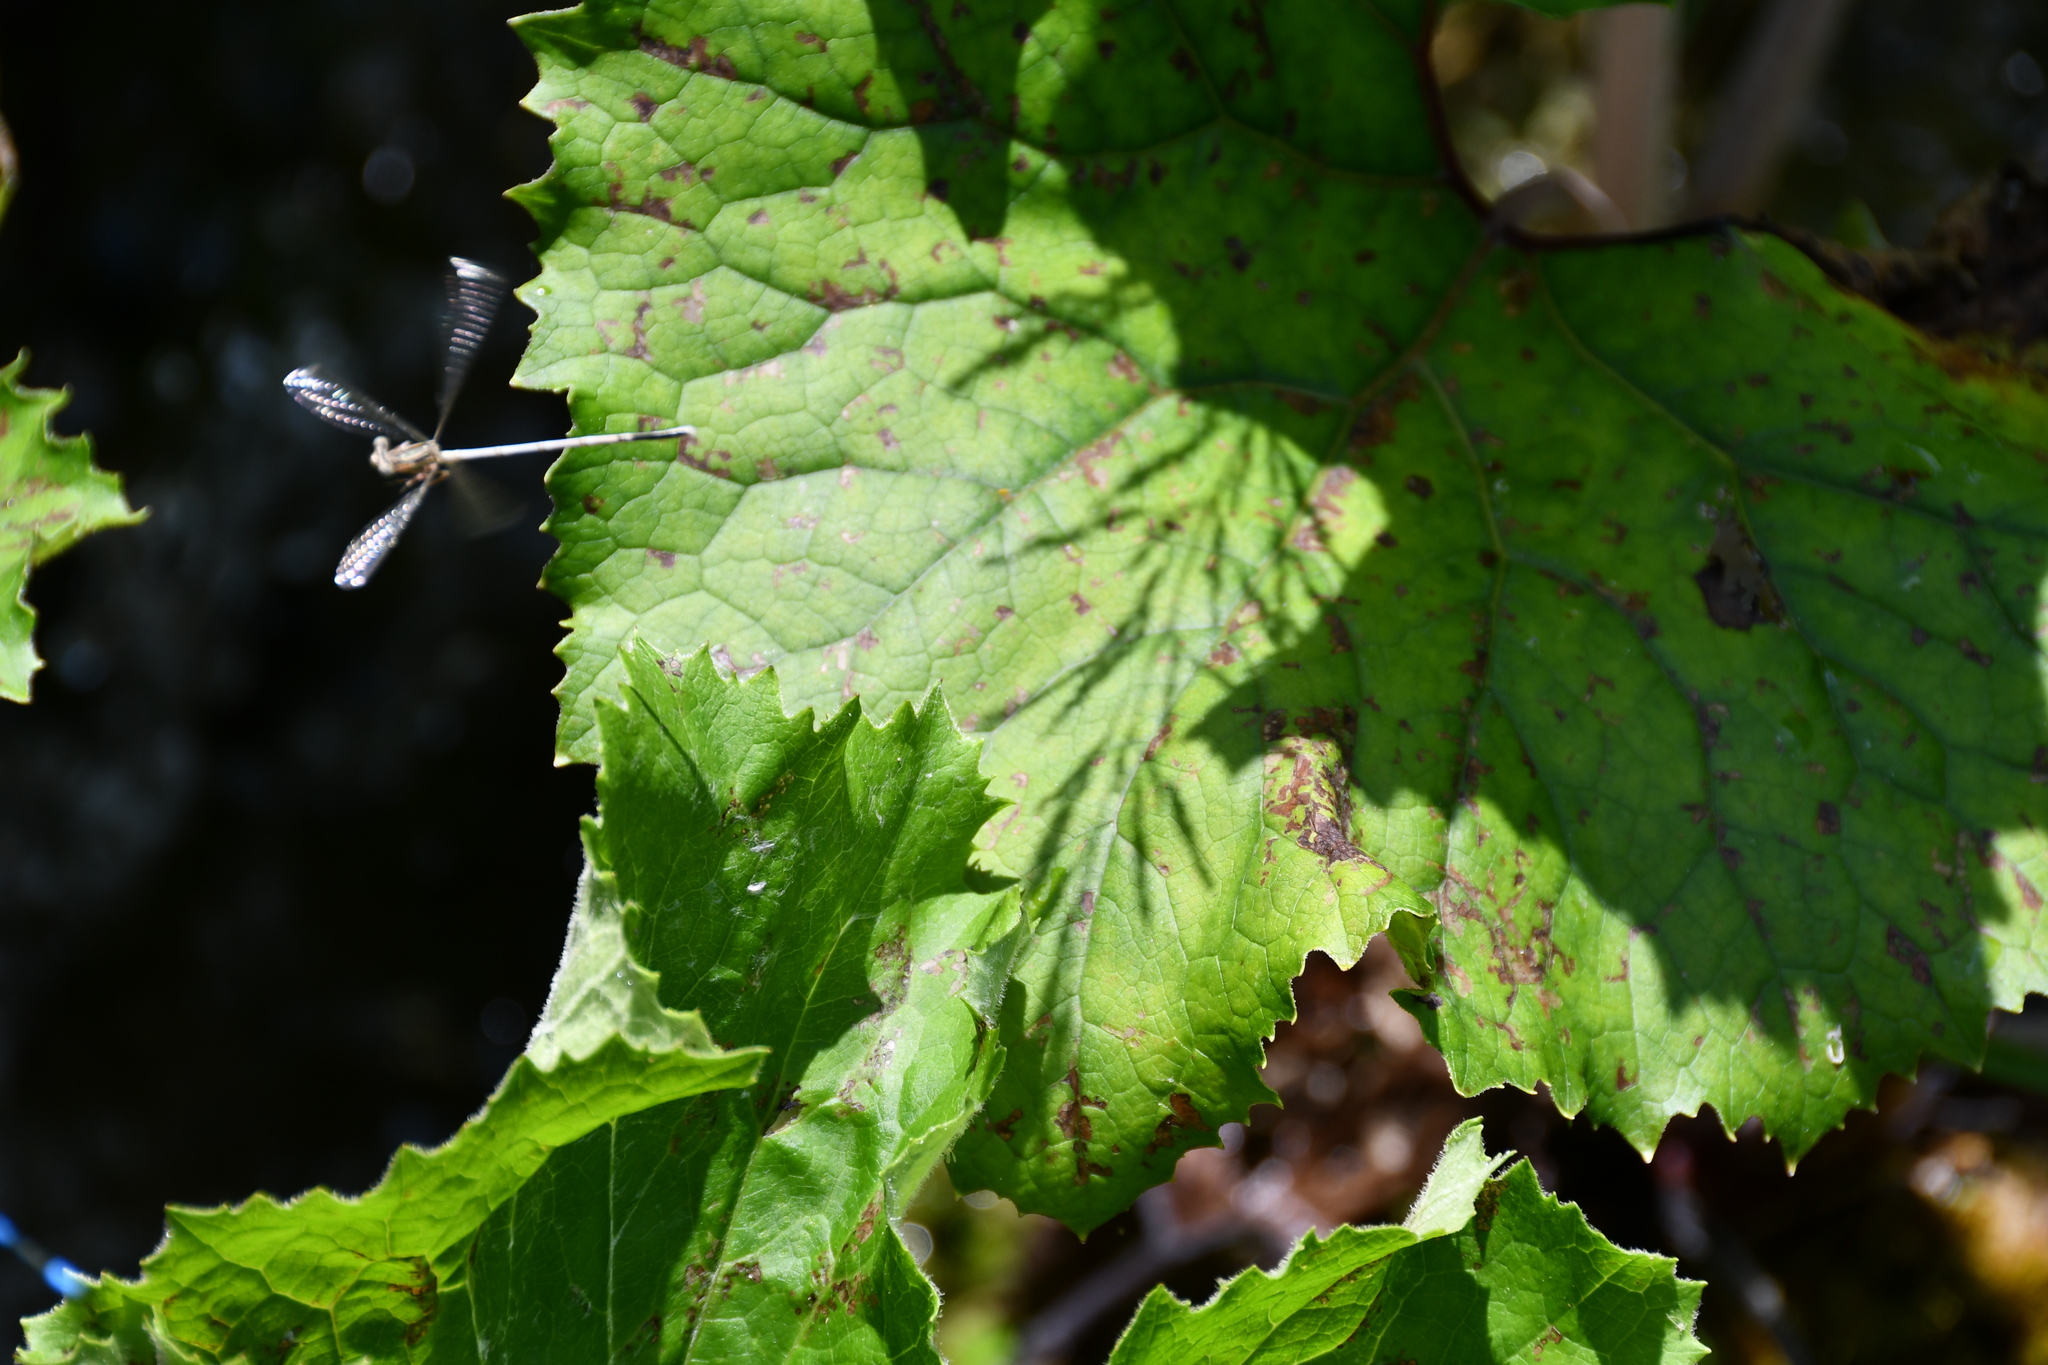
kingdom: Animalia
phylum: Arthropoda
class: Insecta
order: Odonata
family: Platycnemididae
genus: Platycnemis
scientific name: Platycnemis pennipes
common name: White-legged damselfly
